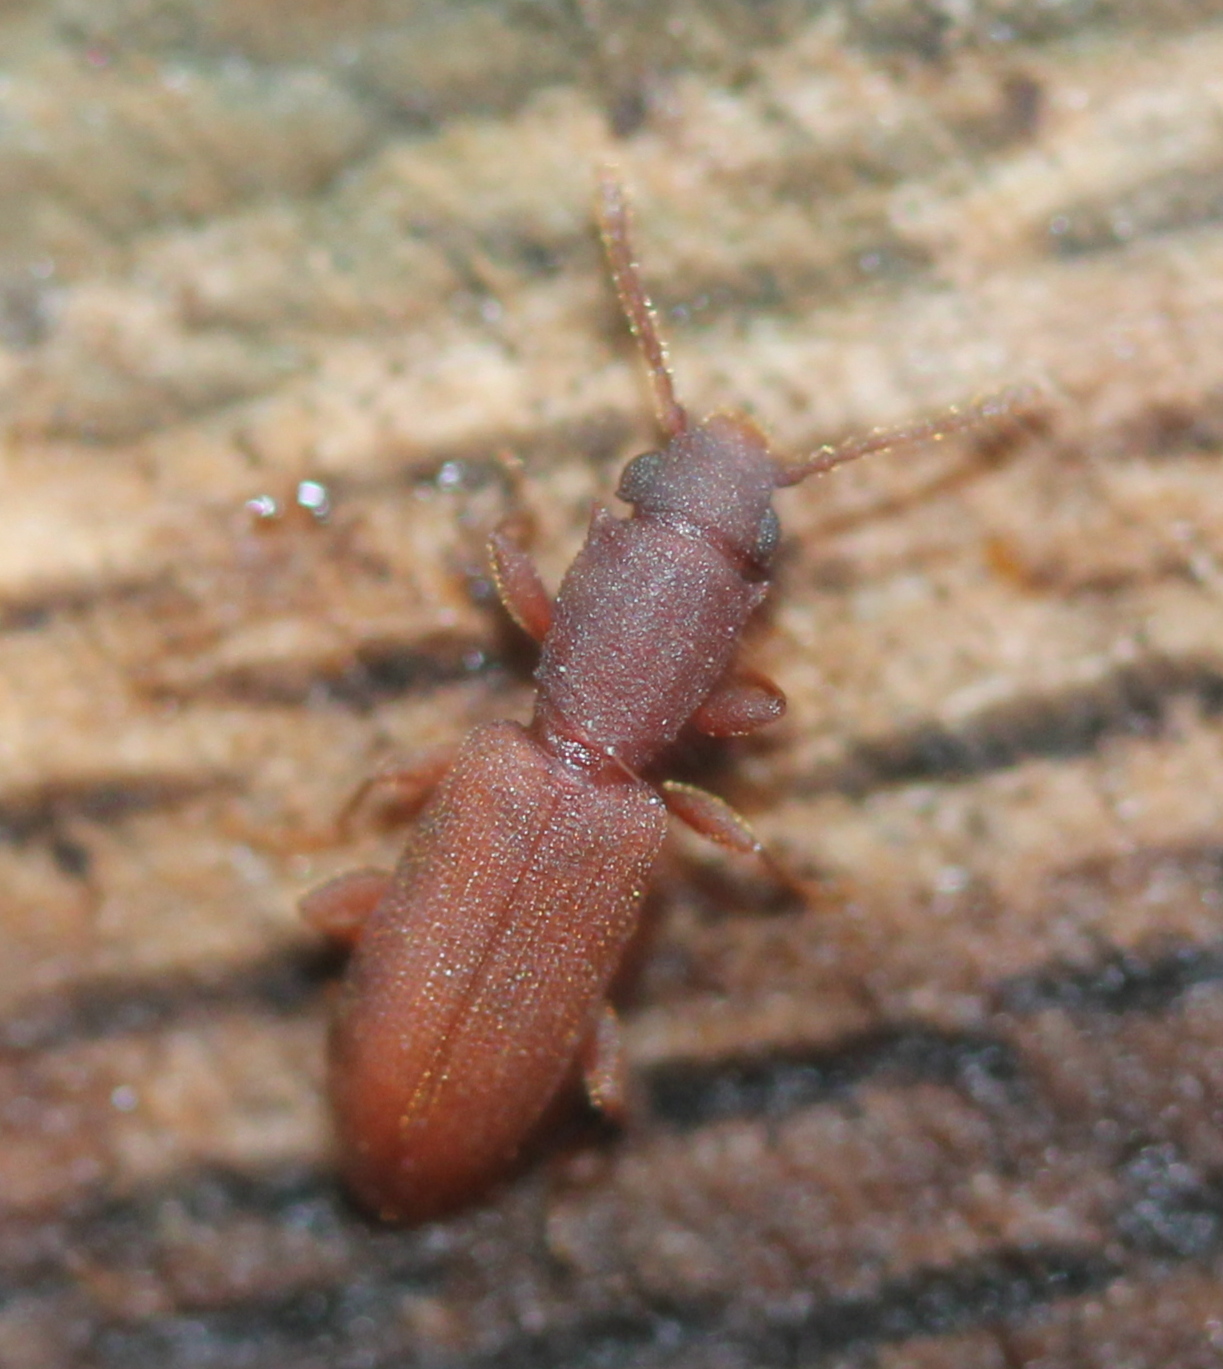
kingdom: Animalia
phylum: Arthropoda
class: Insecta
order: Coleoptera
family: Silvanidae
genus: Silvanus
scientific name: Silvanus muticus
